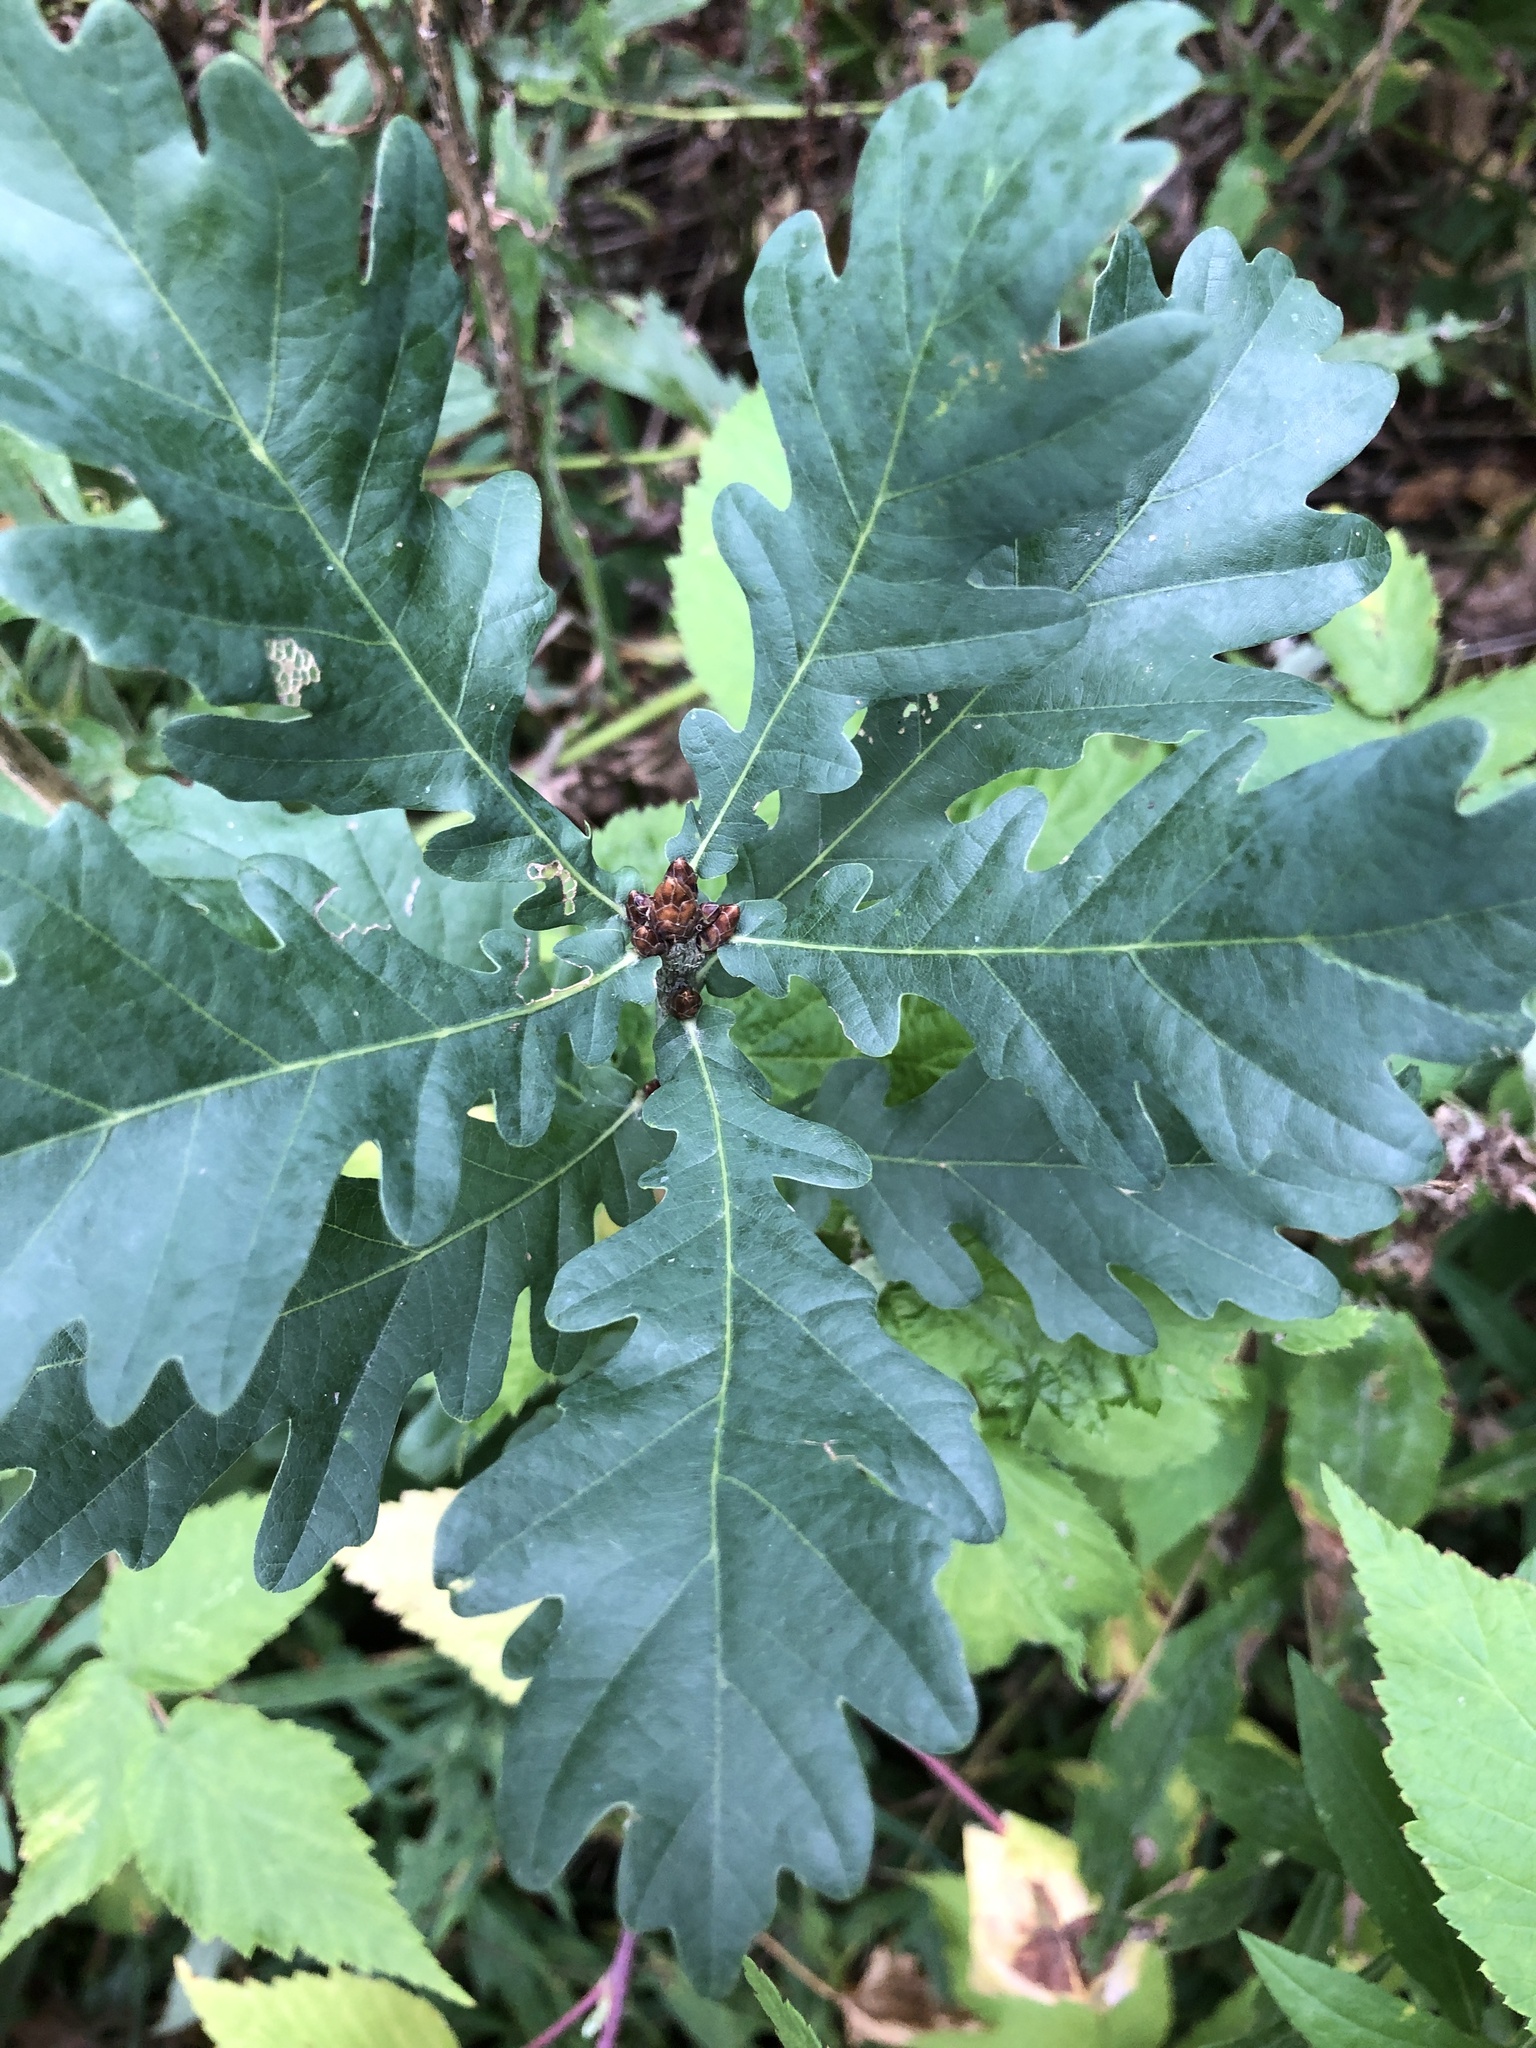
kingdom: Plantae
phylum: Tracheophyta
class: Magnoliopsida
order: Fagales
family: Fagaceae
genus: Quercus
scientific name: Quercus robur
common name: Pedunculate oak
